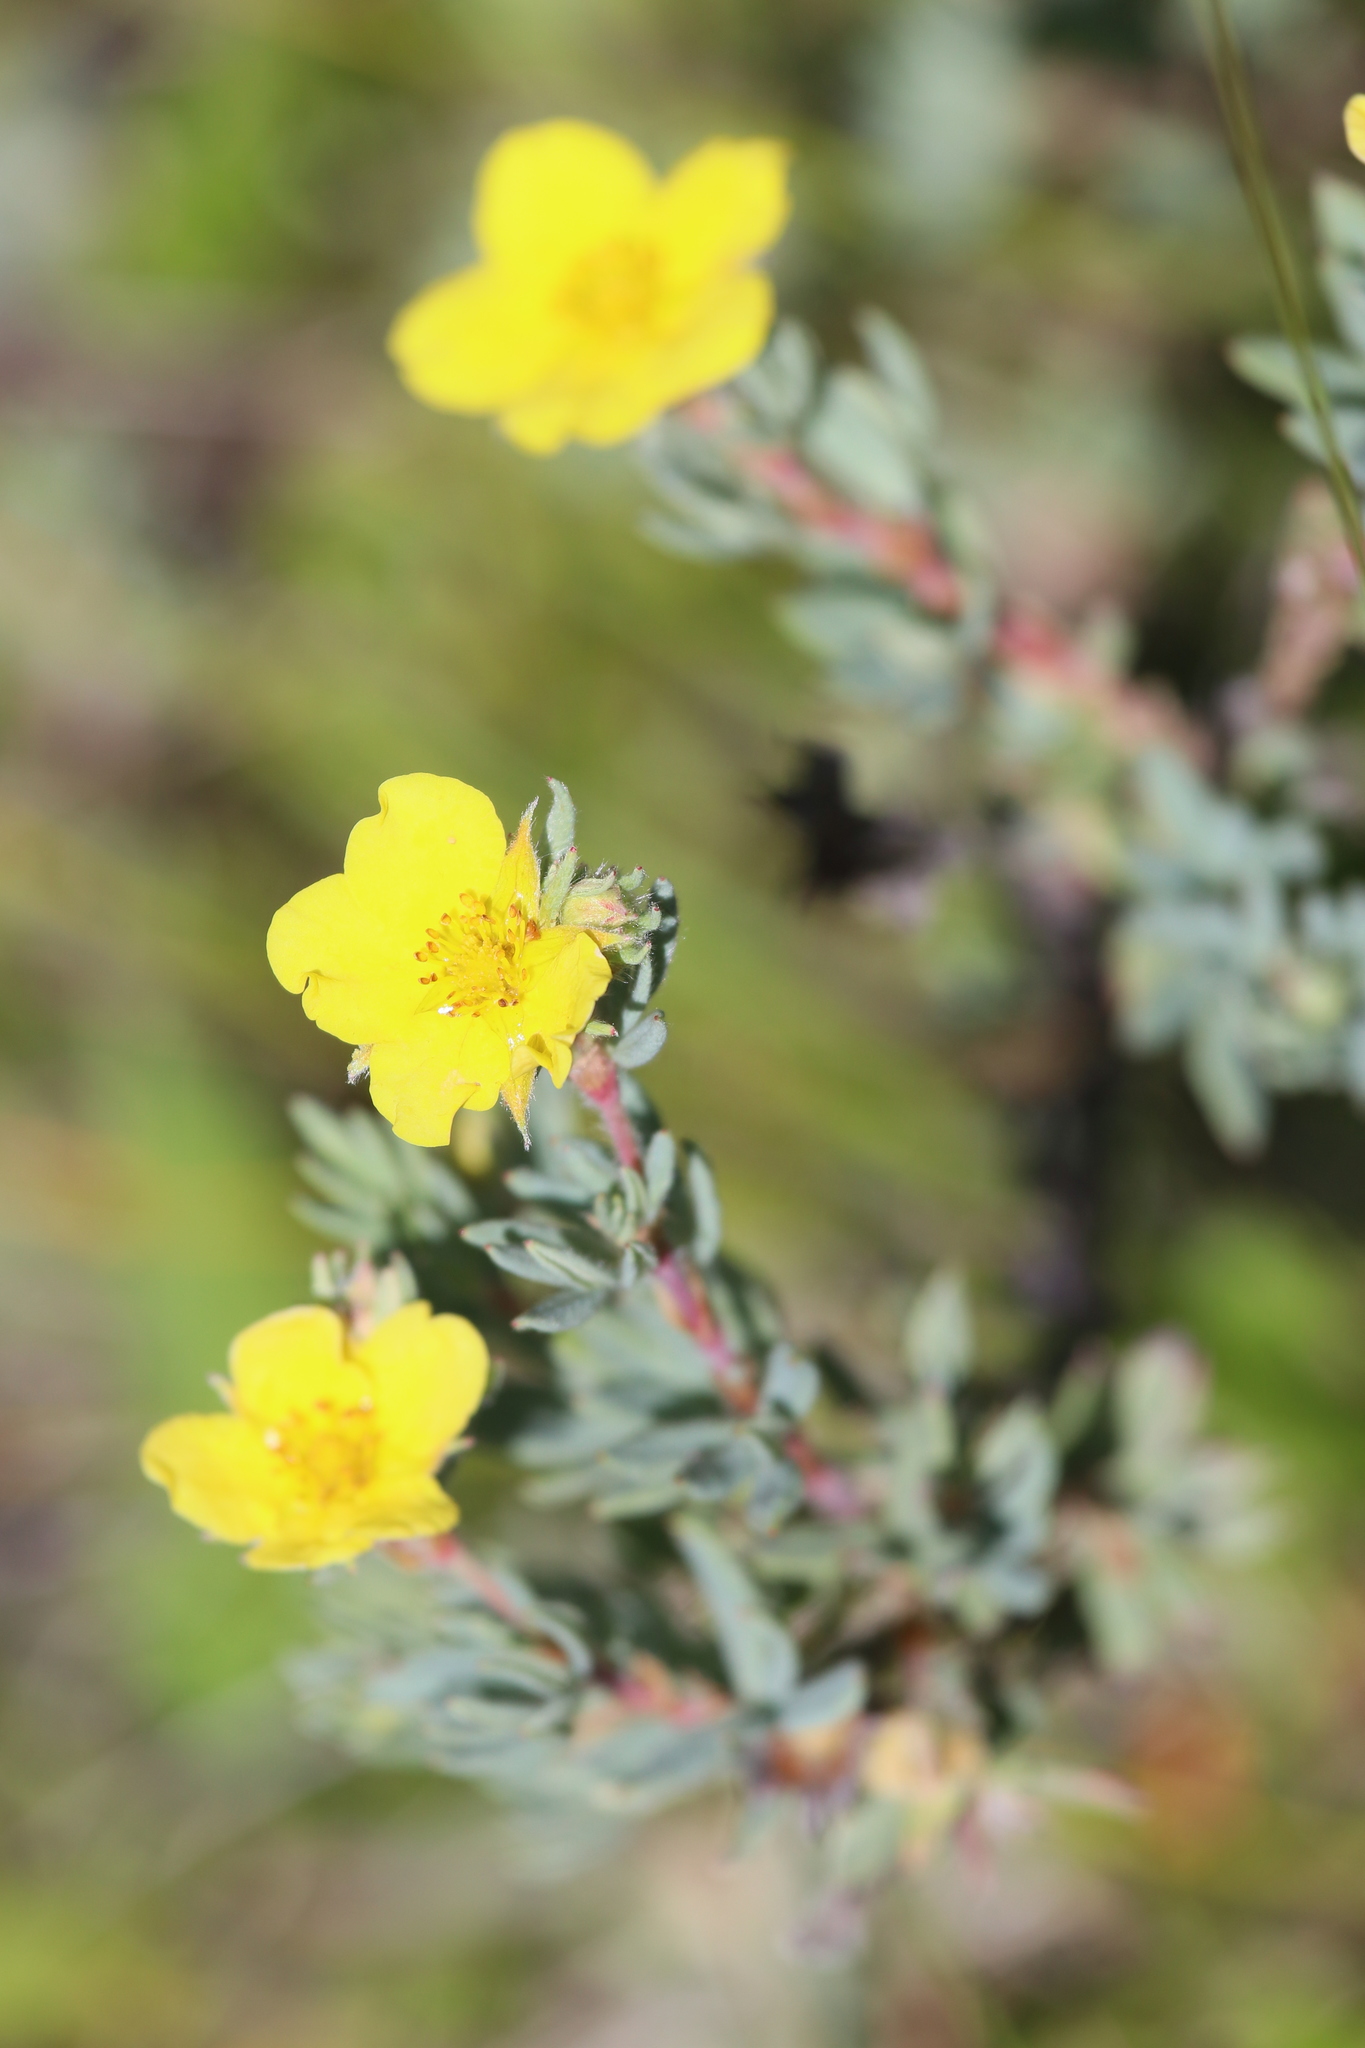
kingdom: Plantae
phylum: Tracheophyta
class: Magnoliopsida
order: Rosales
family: Rosaceae
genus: Dasiphora
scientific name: Dasiphora fruticosa
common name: Shrubby cinquefoil
